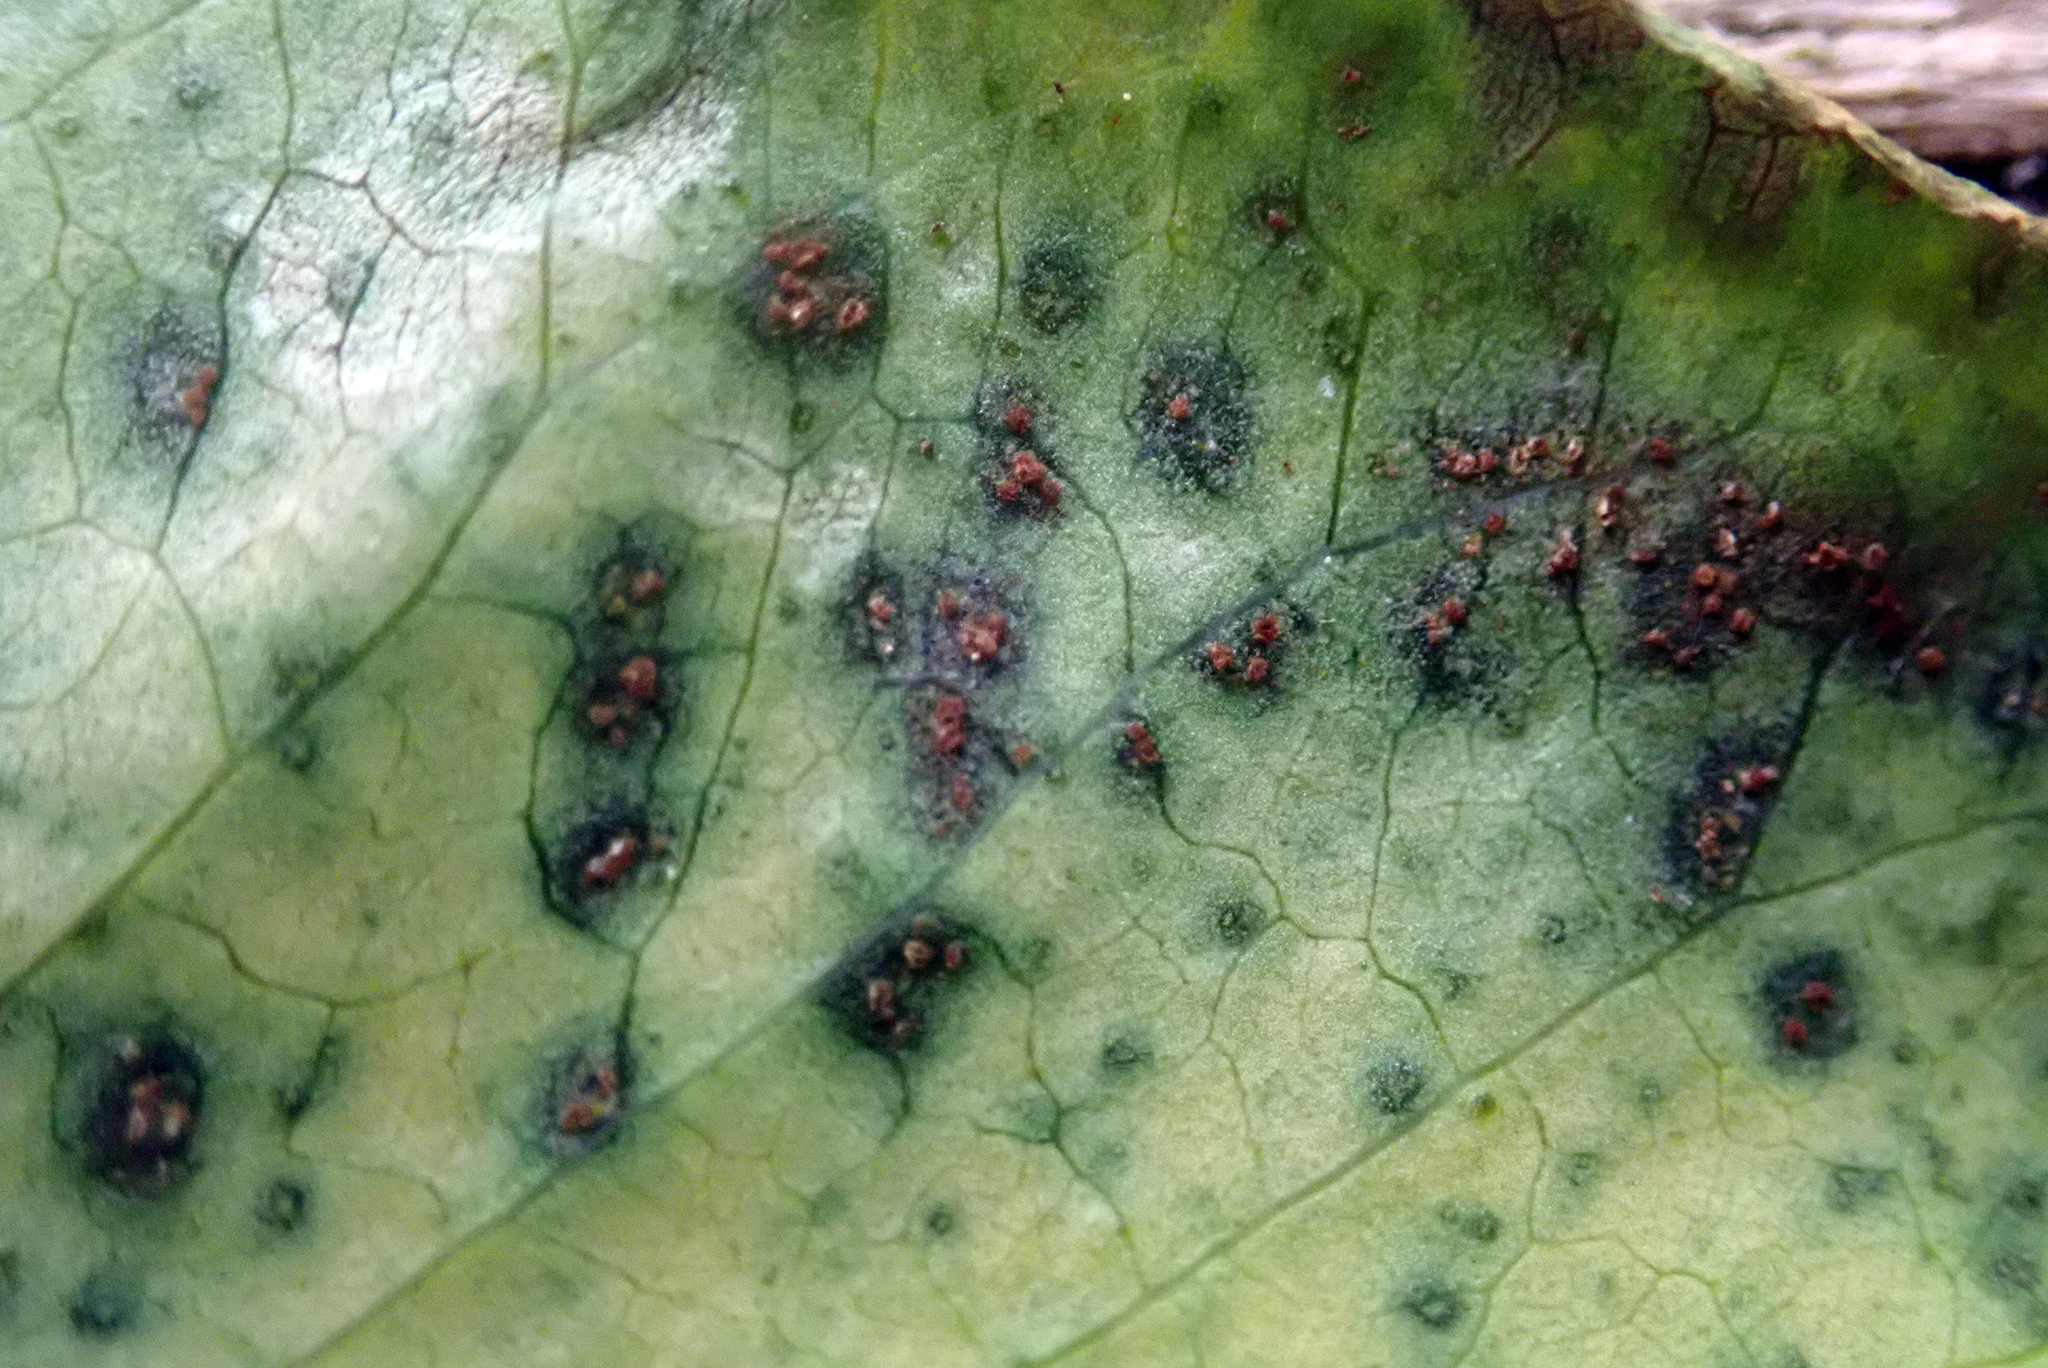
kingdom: Fungi
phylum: Basidiomycota
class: Pucciniomycetes
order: Pucciniales
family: Pucciniaceae
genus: Puccinia
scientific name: Puccinia otagensis
